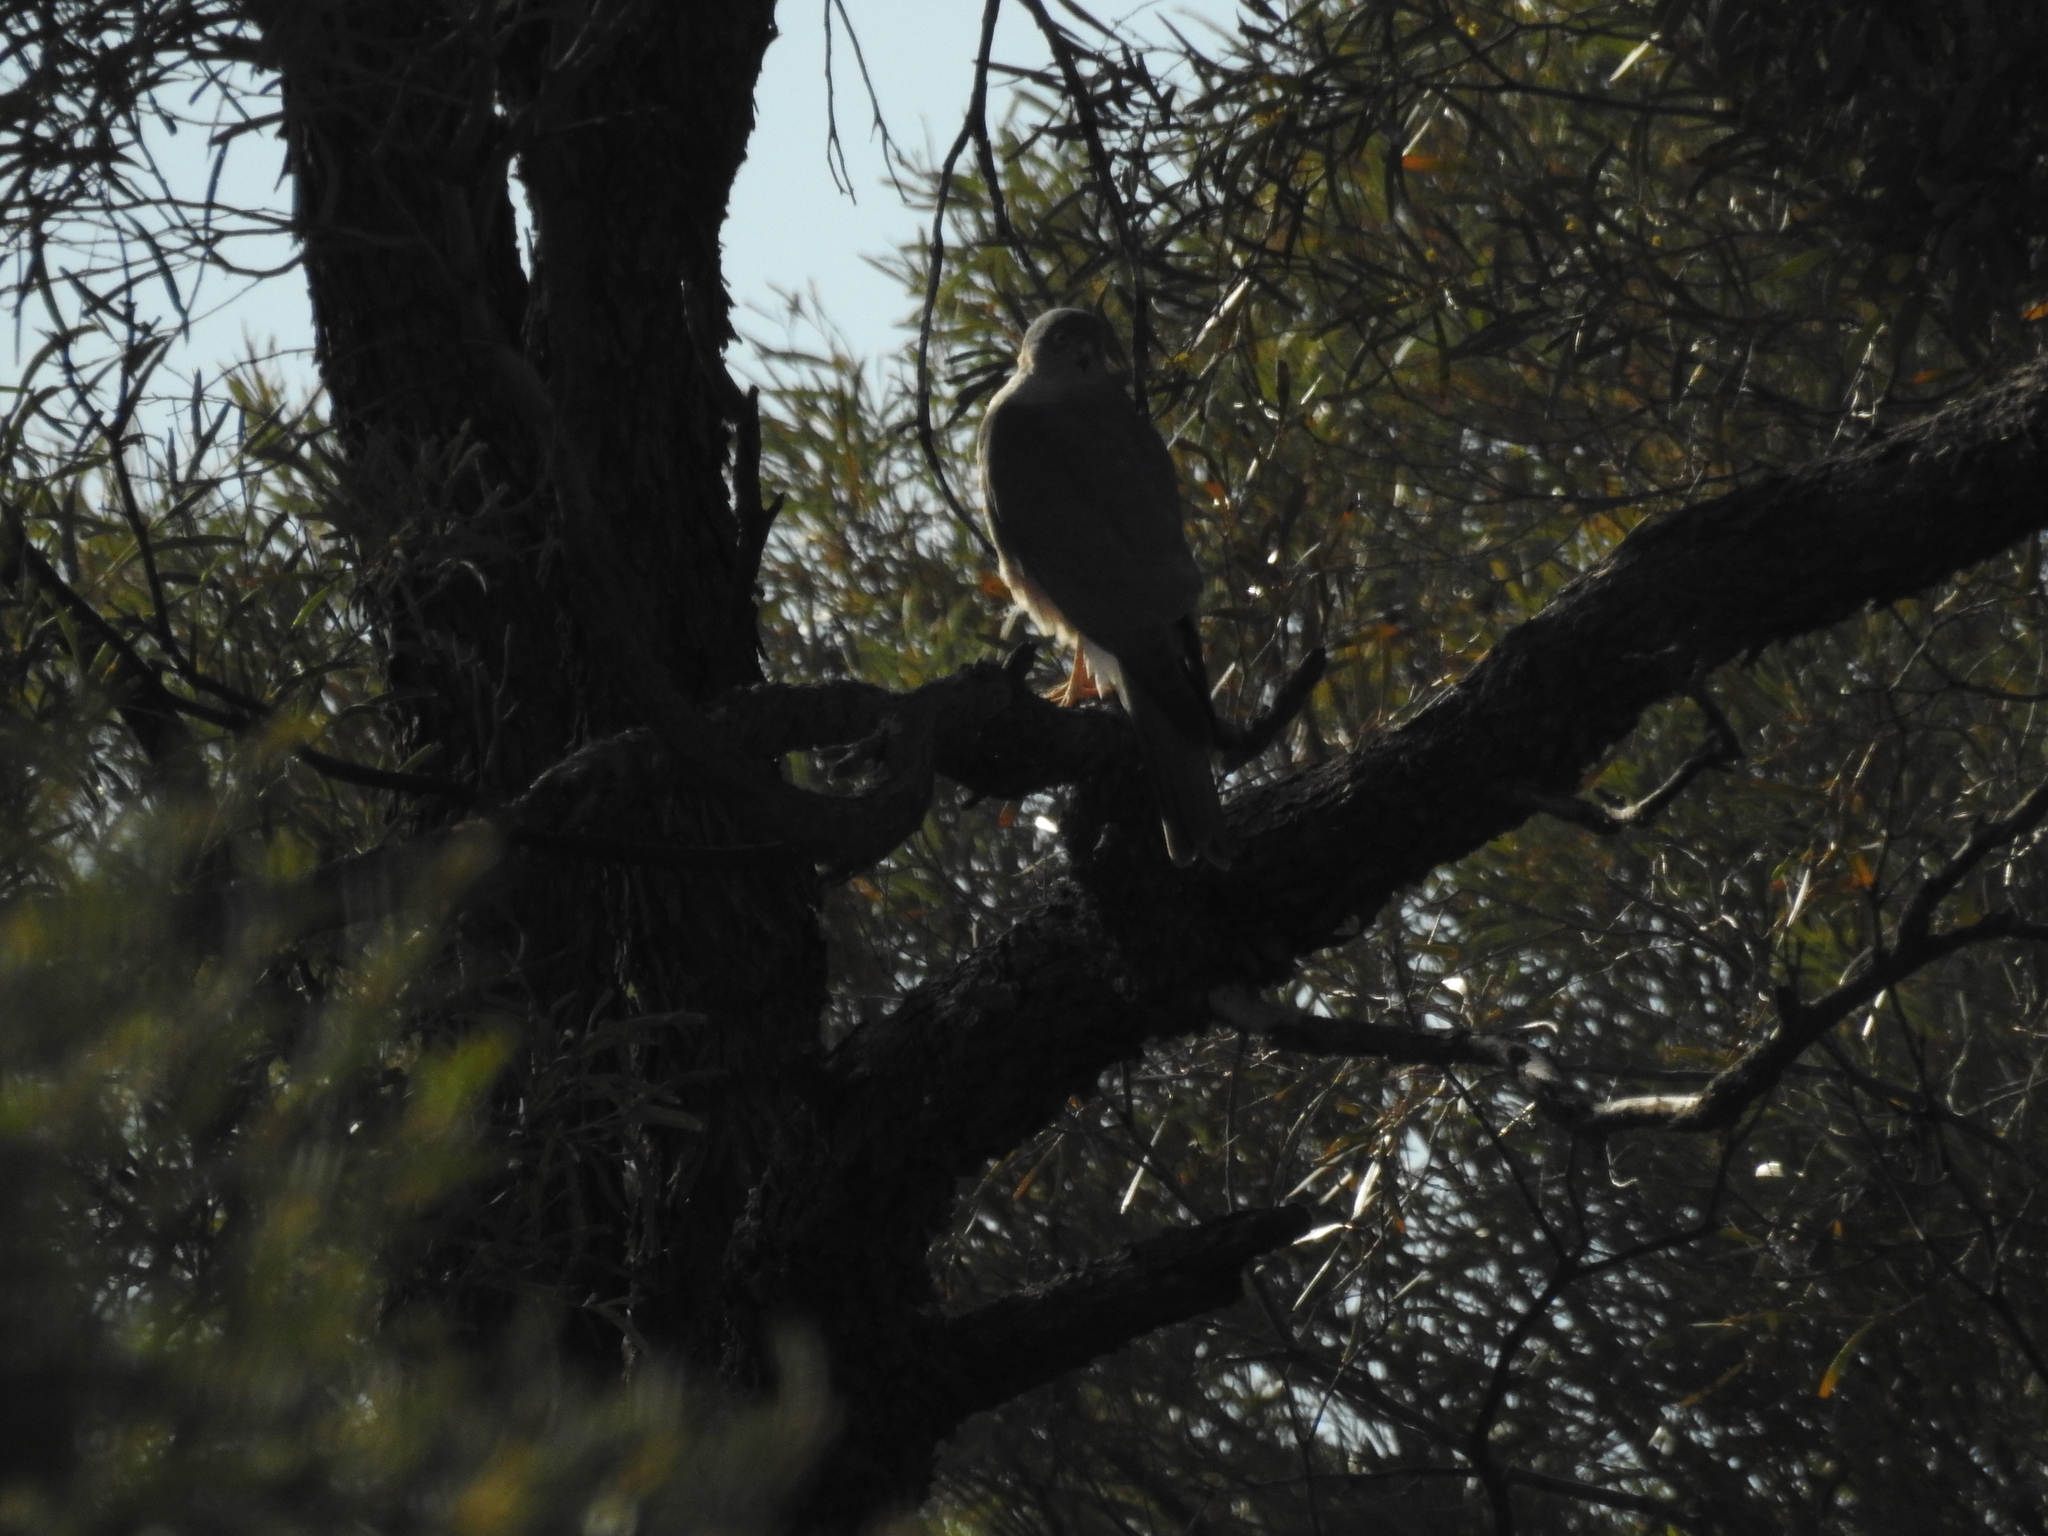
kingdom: Animalia
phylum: Chordata
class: Aves
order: Accipitriformes
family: Accipitridae
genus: Accipiter
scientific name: Accipiter cirrocephalus
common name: Collared sparrowhawk
